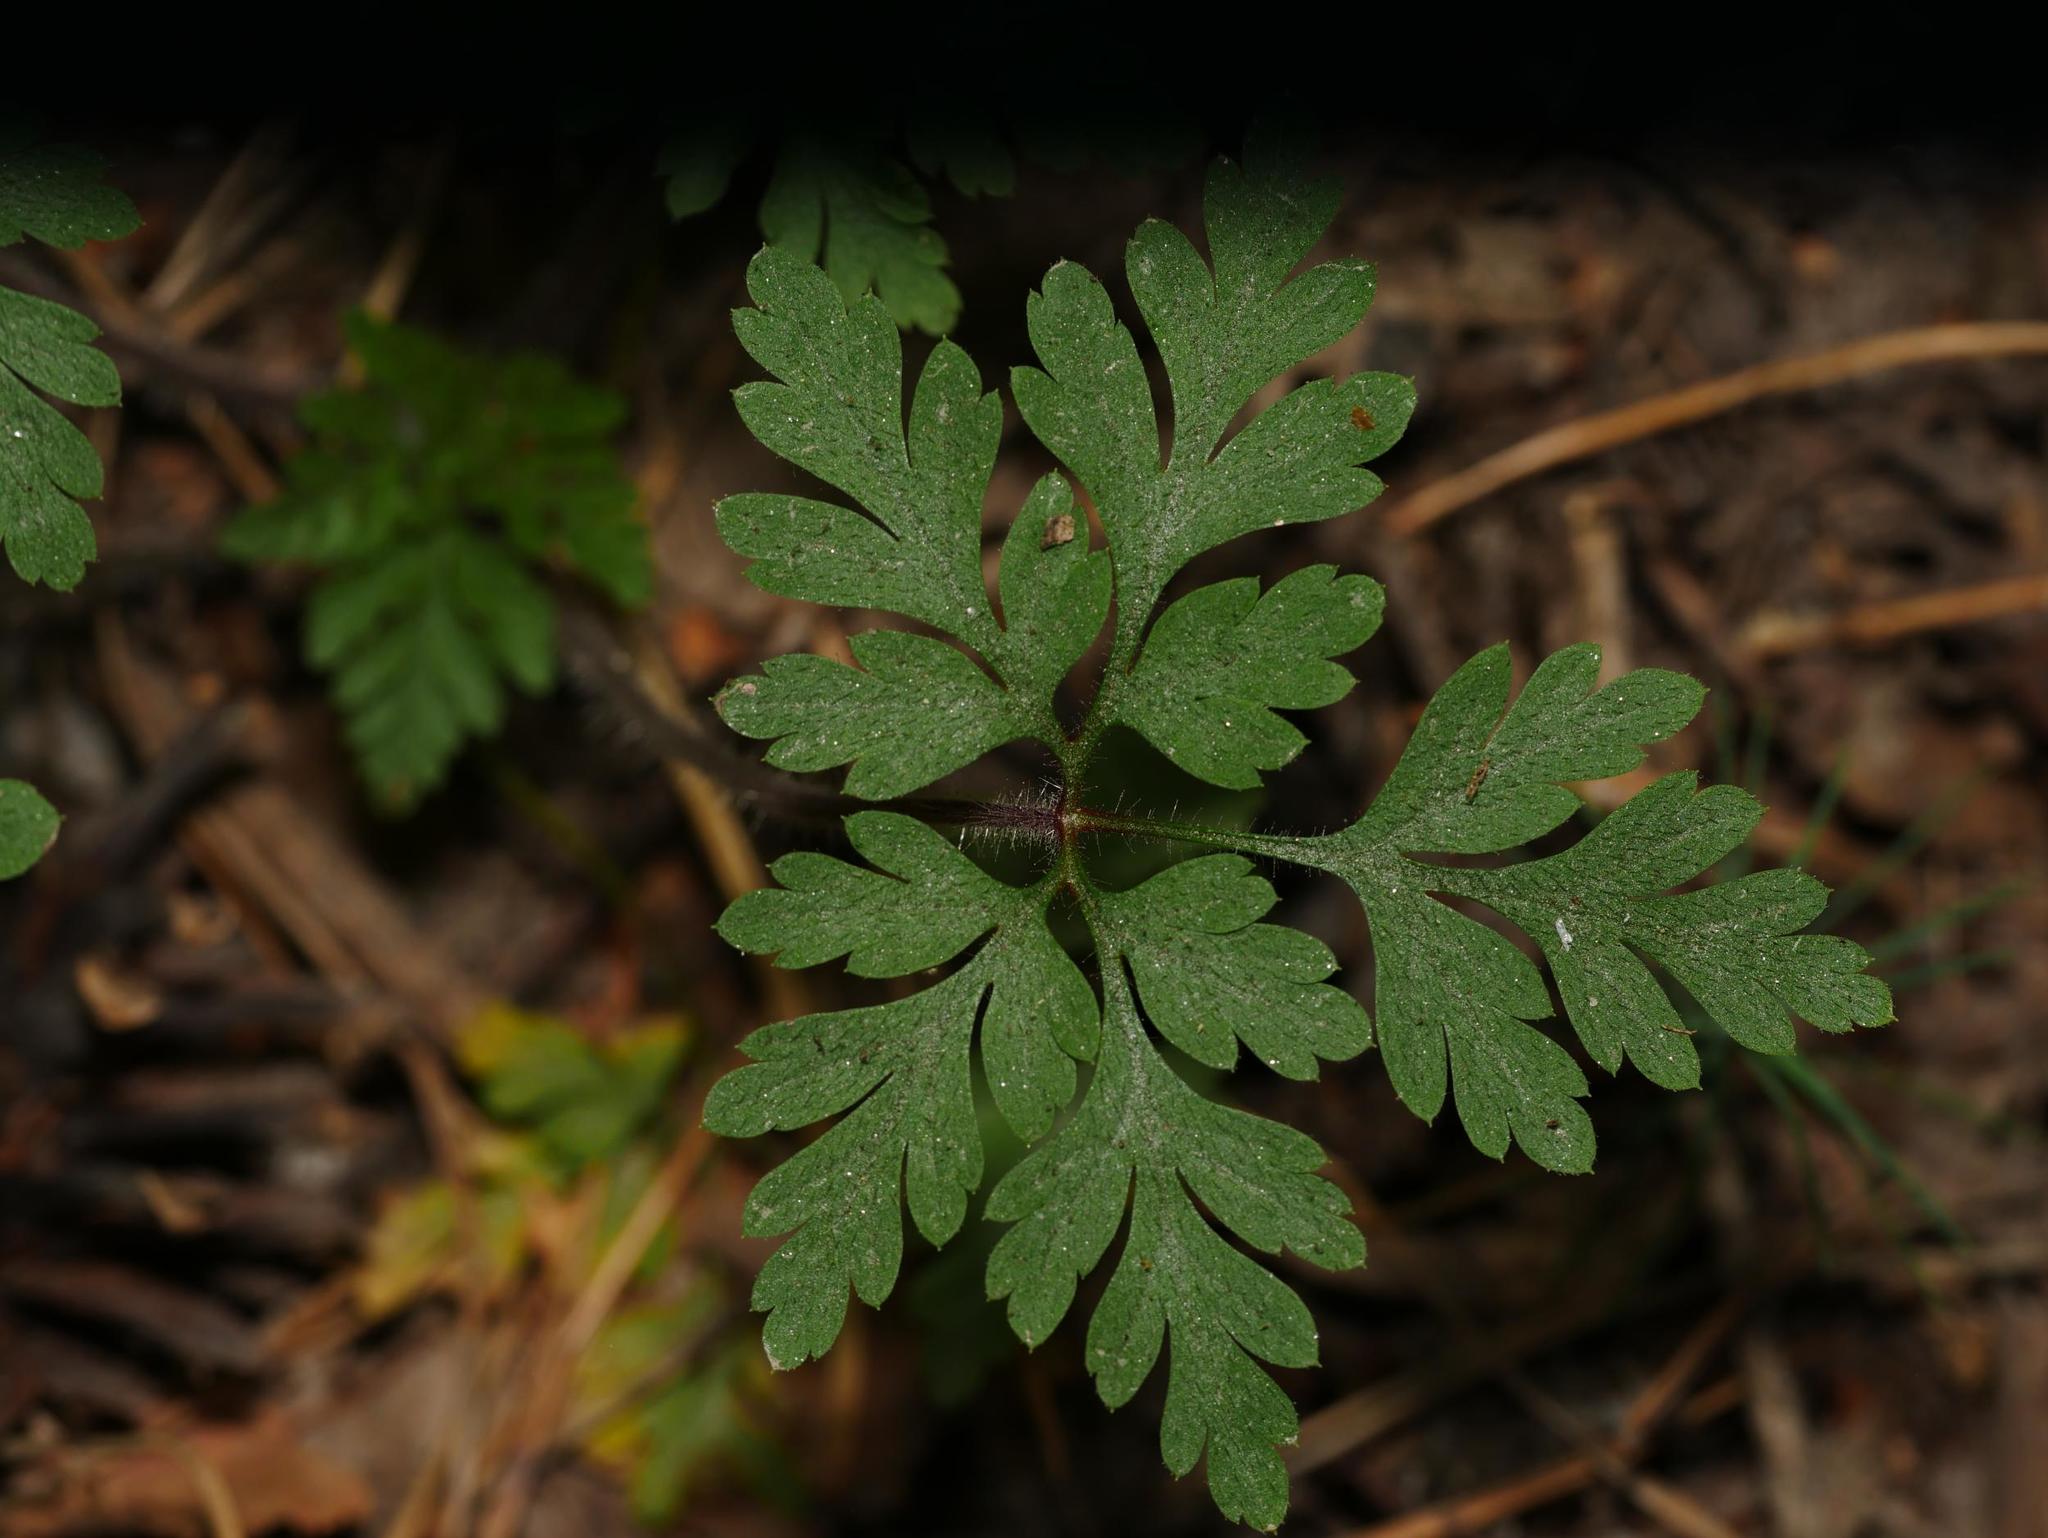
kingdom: Plantae
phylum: Tracheophyta
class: Magnoliopsida
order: Geraniales
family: Geraniaceae
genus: Geranium
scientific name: Geranium robertianum
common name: Herb-robert
